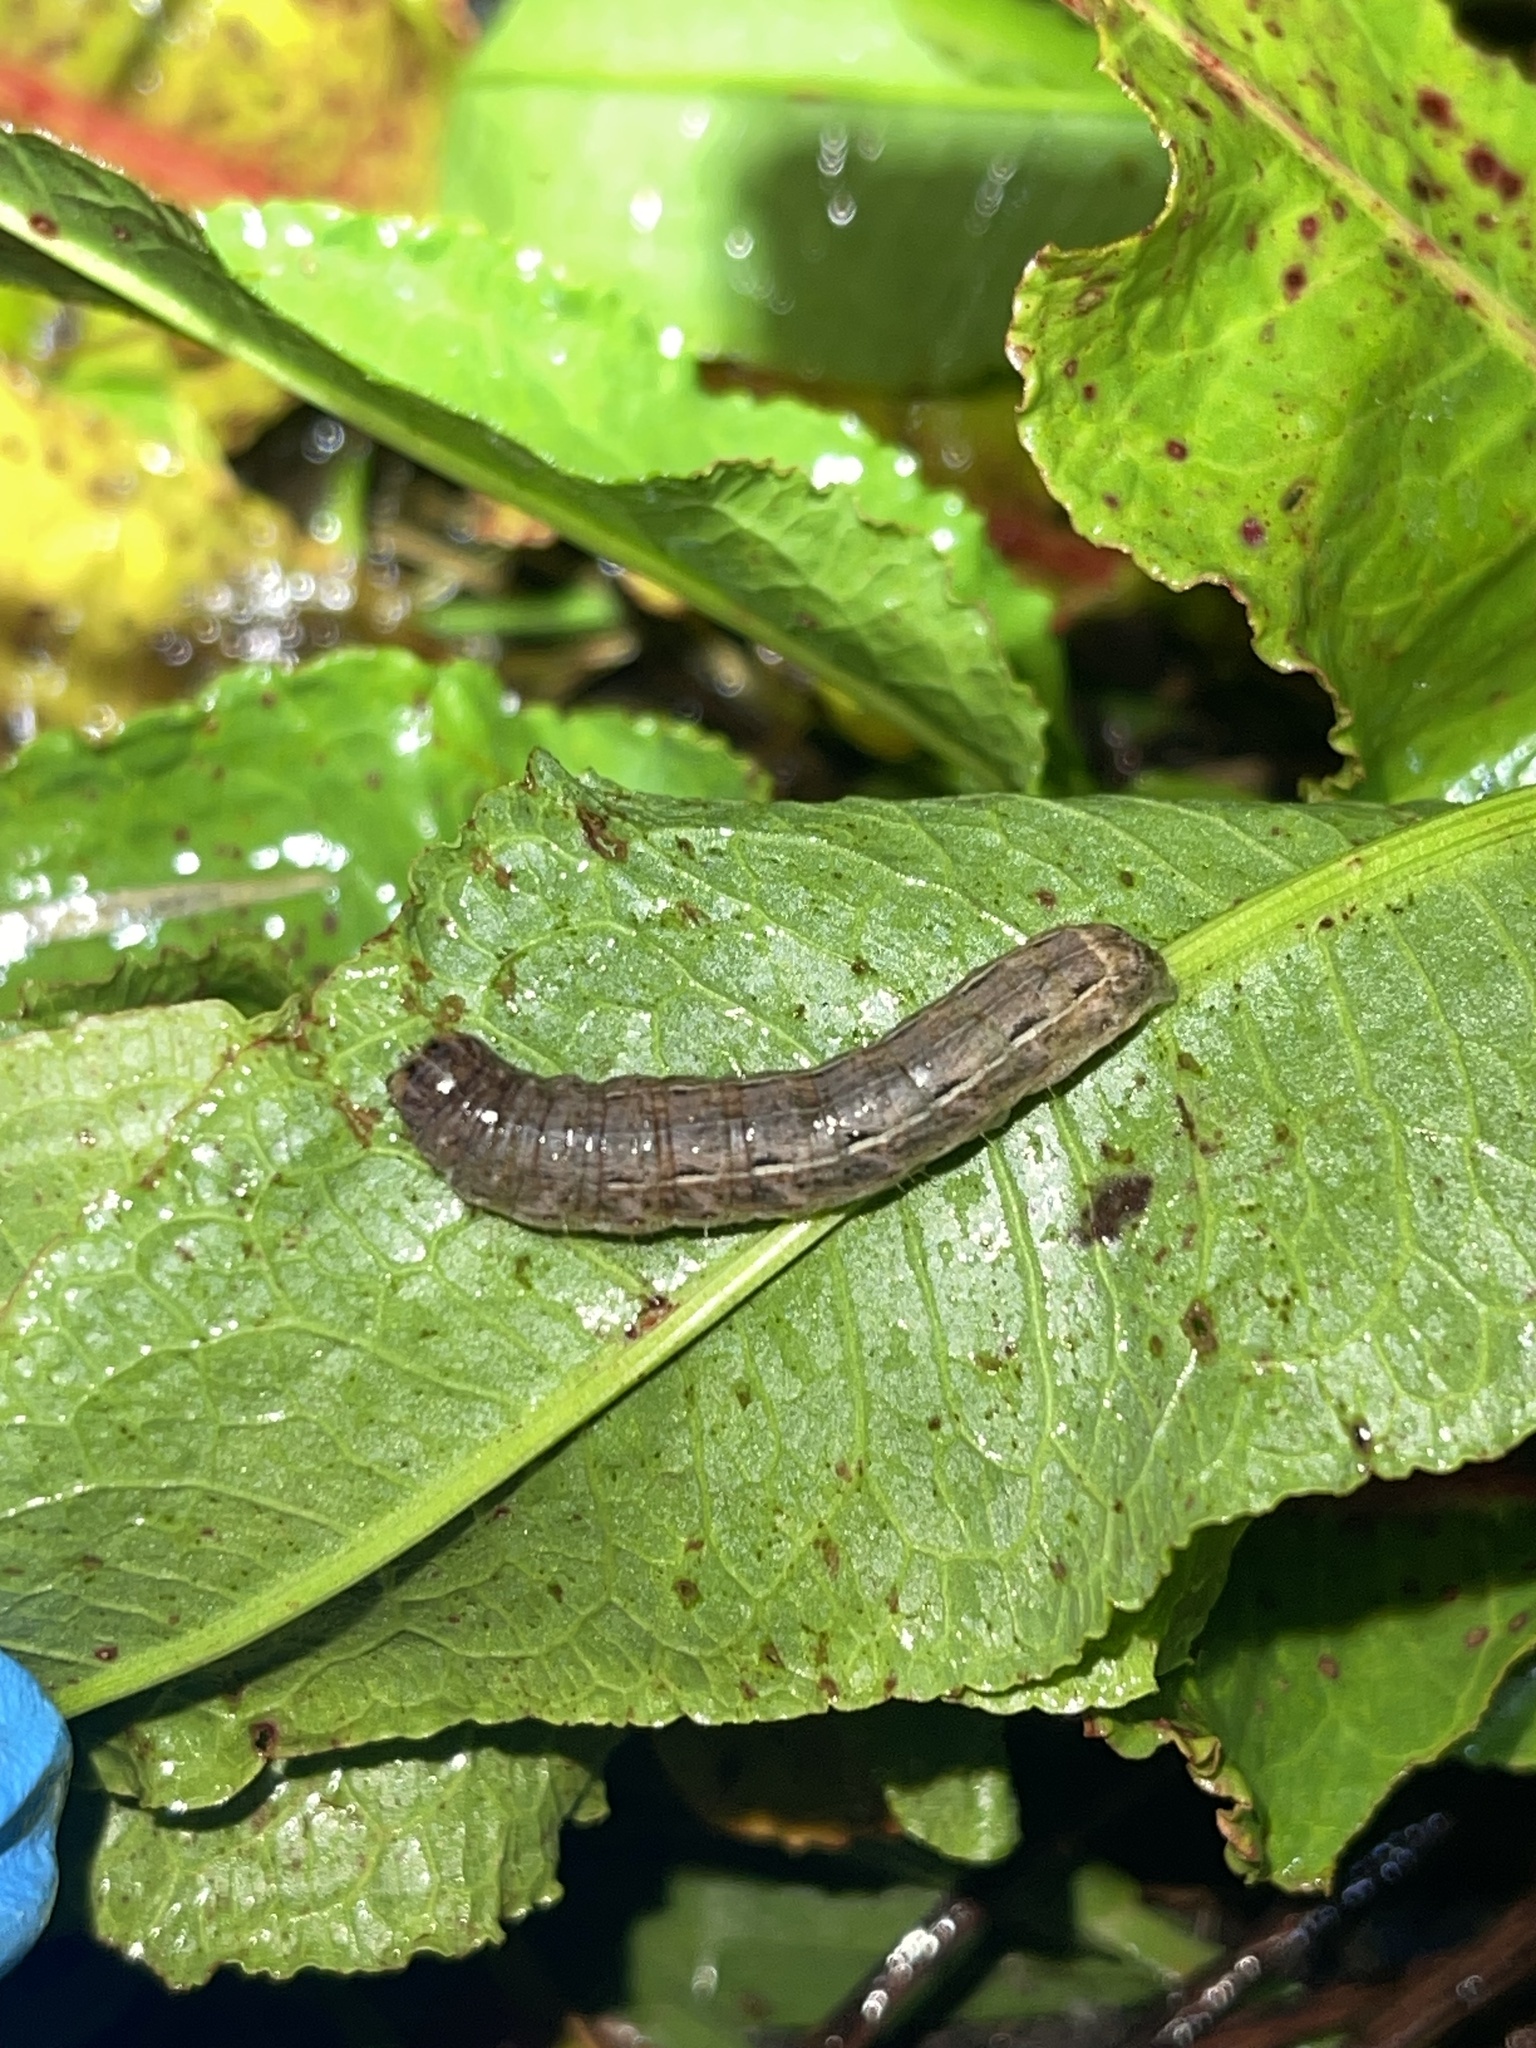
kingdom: Animalia
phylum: Arthropoda
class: Insecta
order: Lepidoptera
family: Noctuidae
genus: Noctua
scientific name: Noctua pronuba
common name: Large yellow underwing
